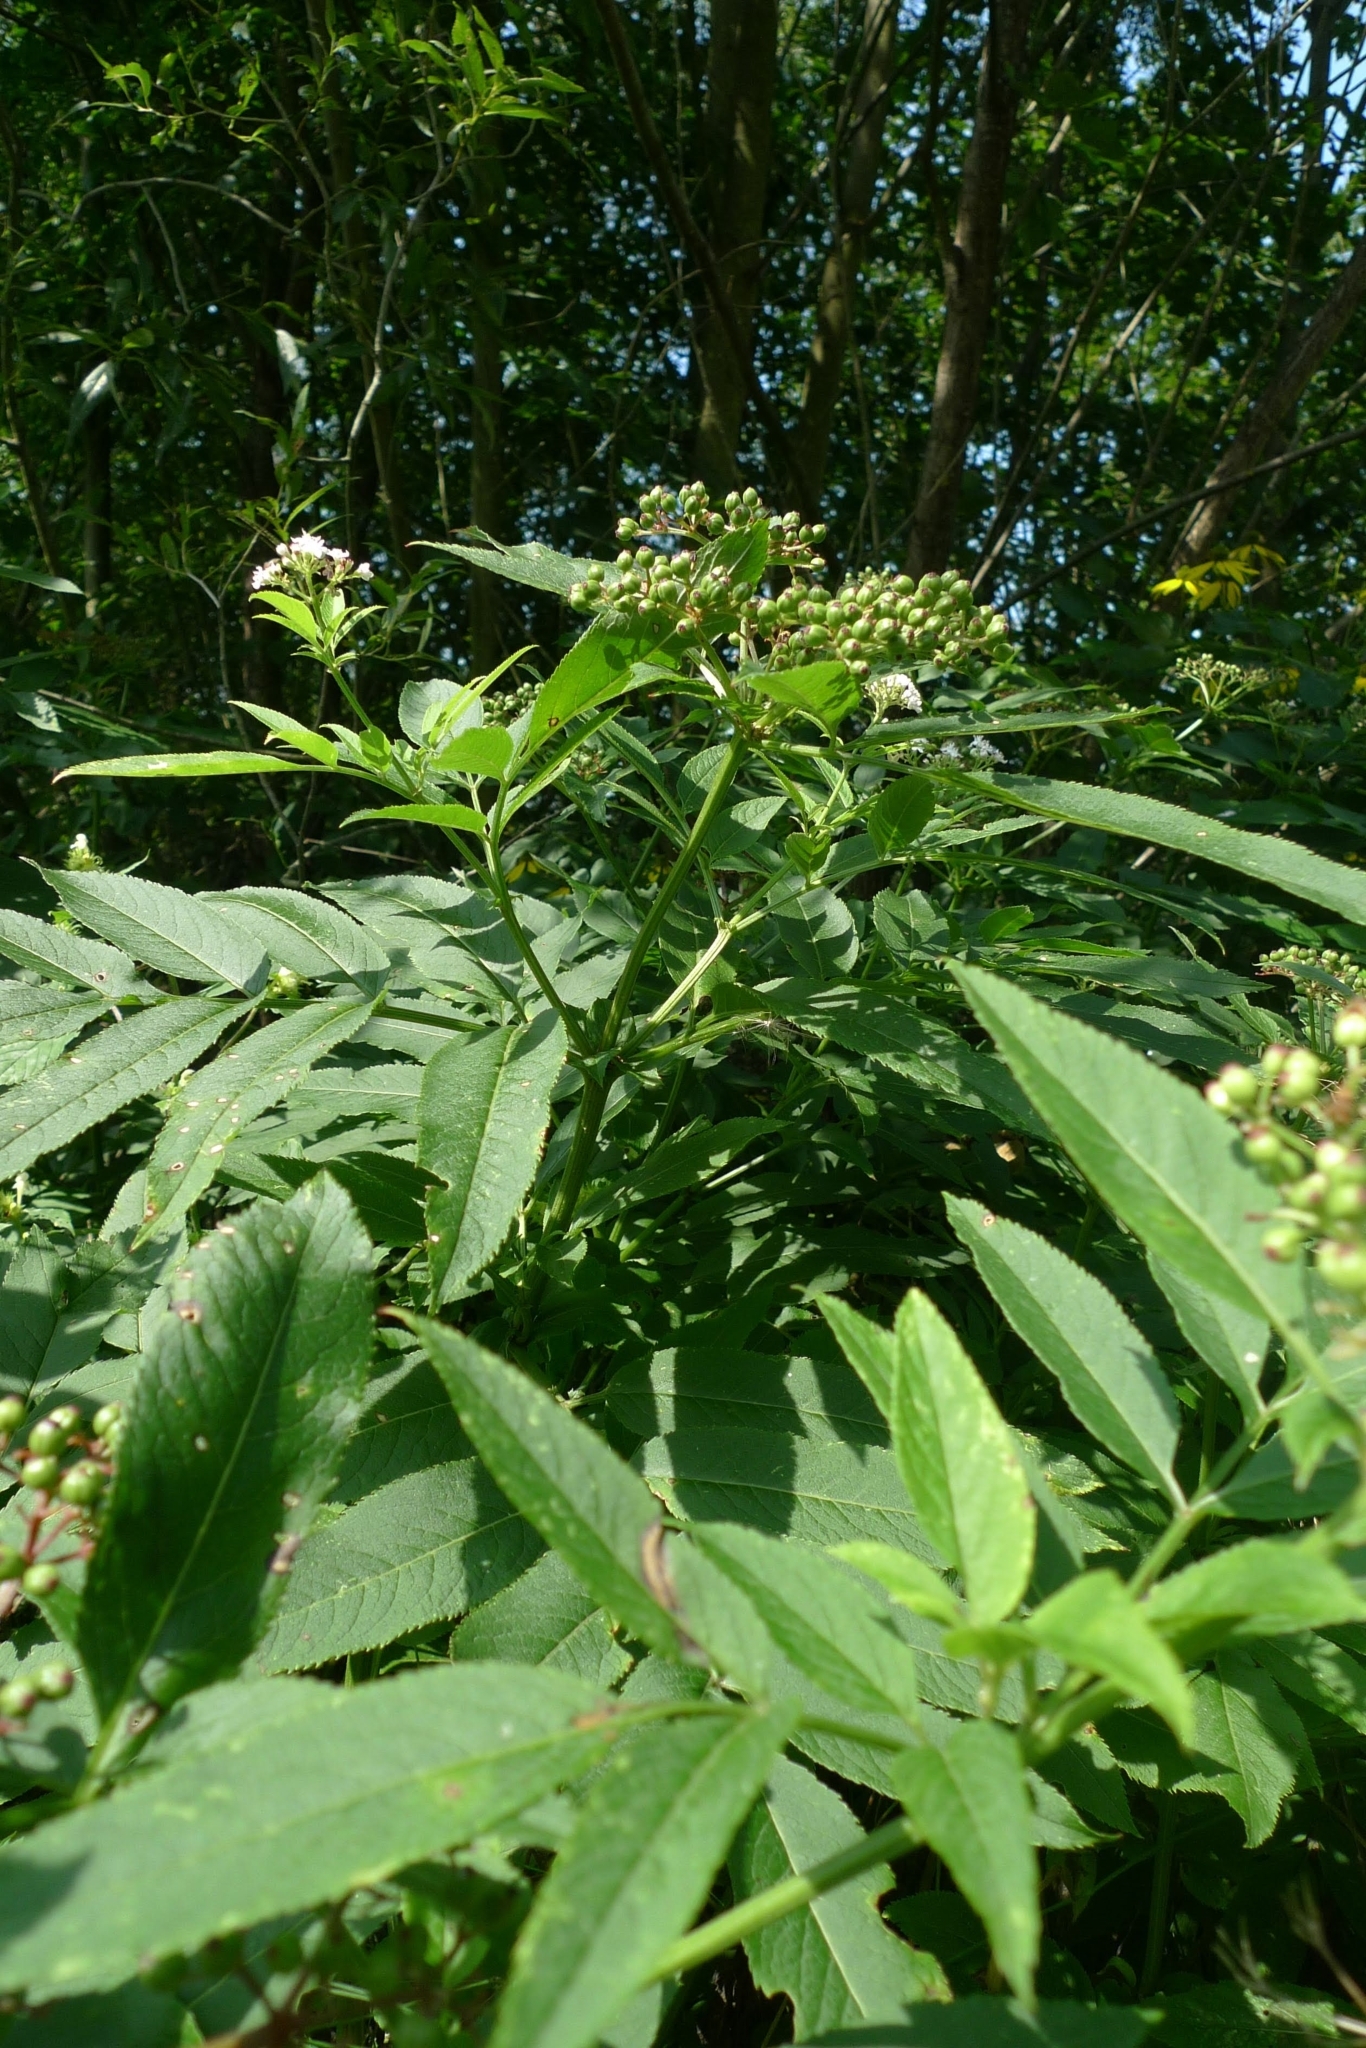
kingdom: Plantae
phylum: Tracheophyta
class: Magnoliopsida
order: Dipsacales
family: Viburnaceae
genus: Sambucus
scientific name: Sambucus ebulus
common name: Dwarf elder
